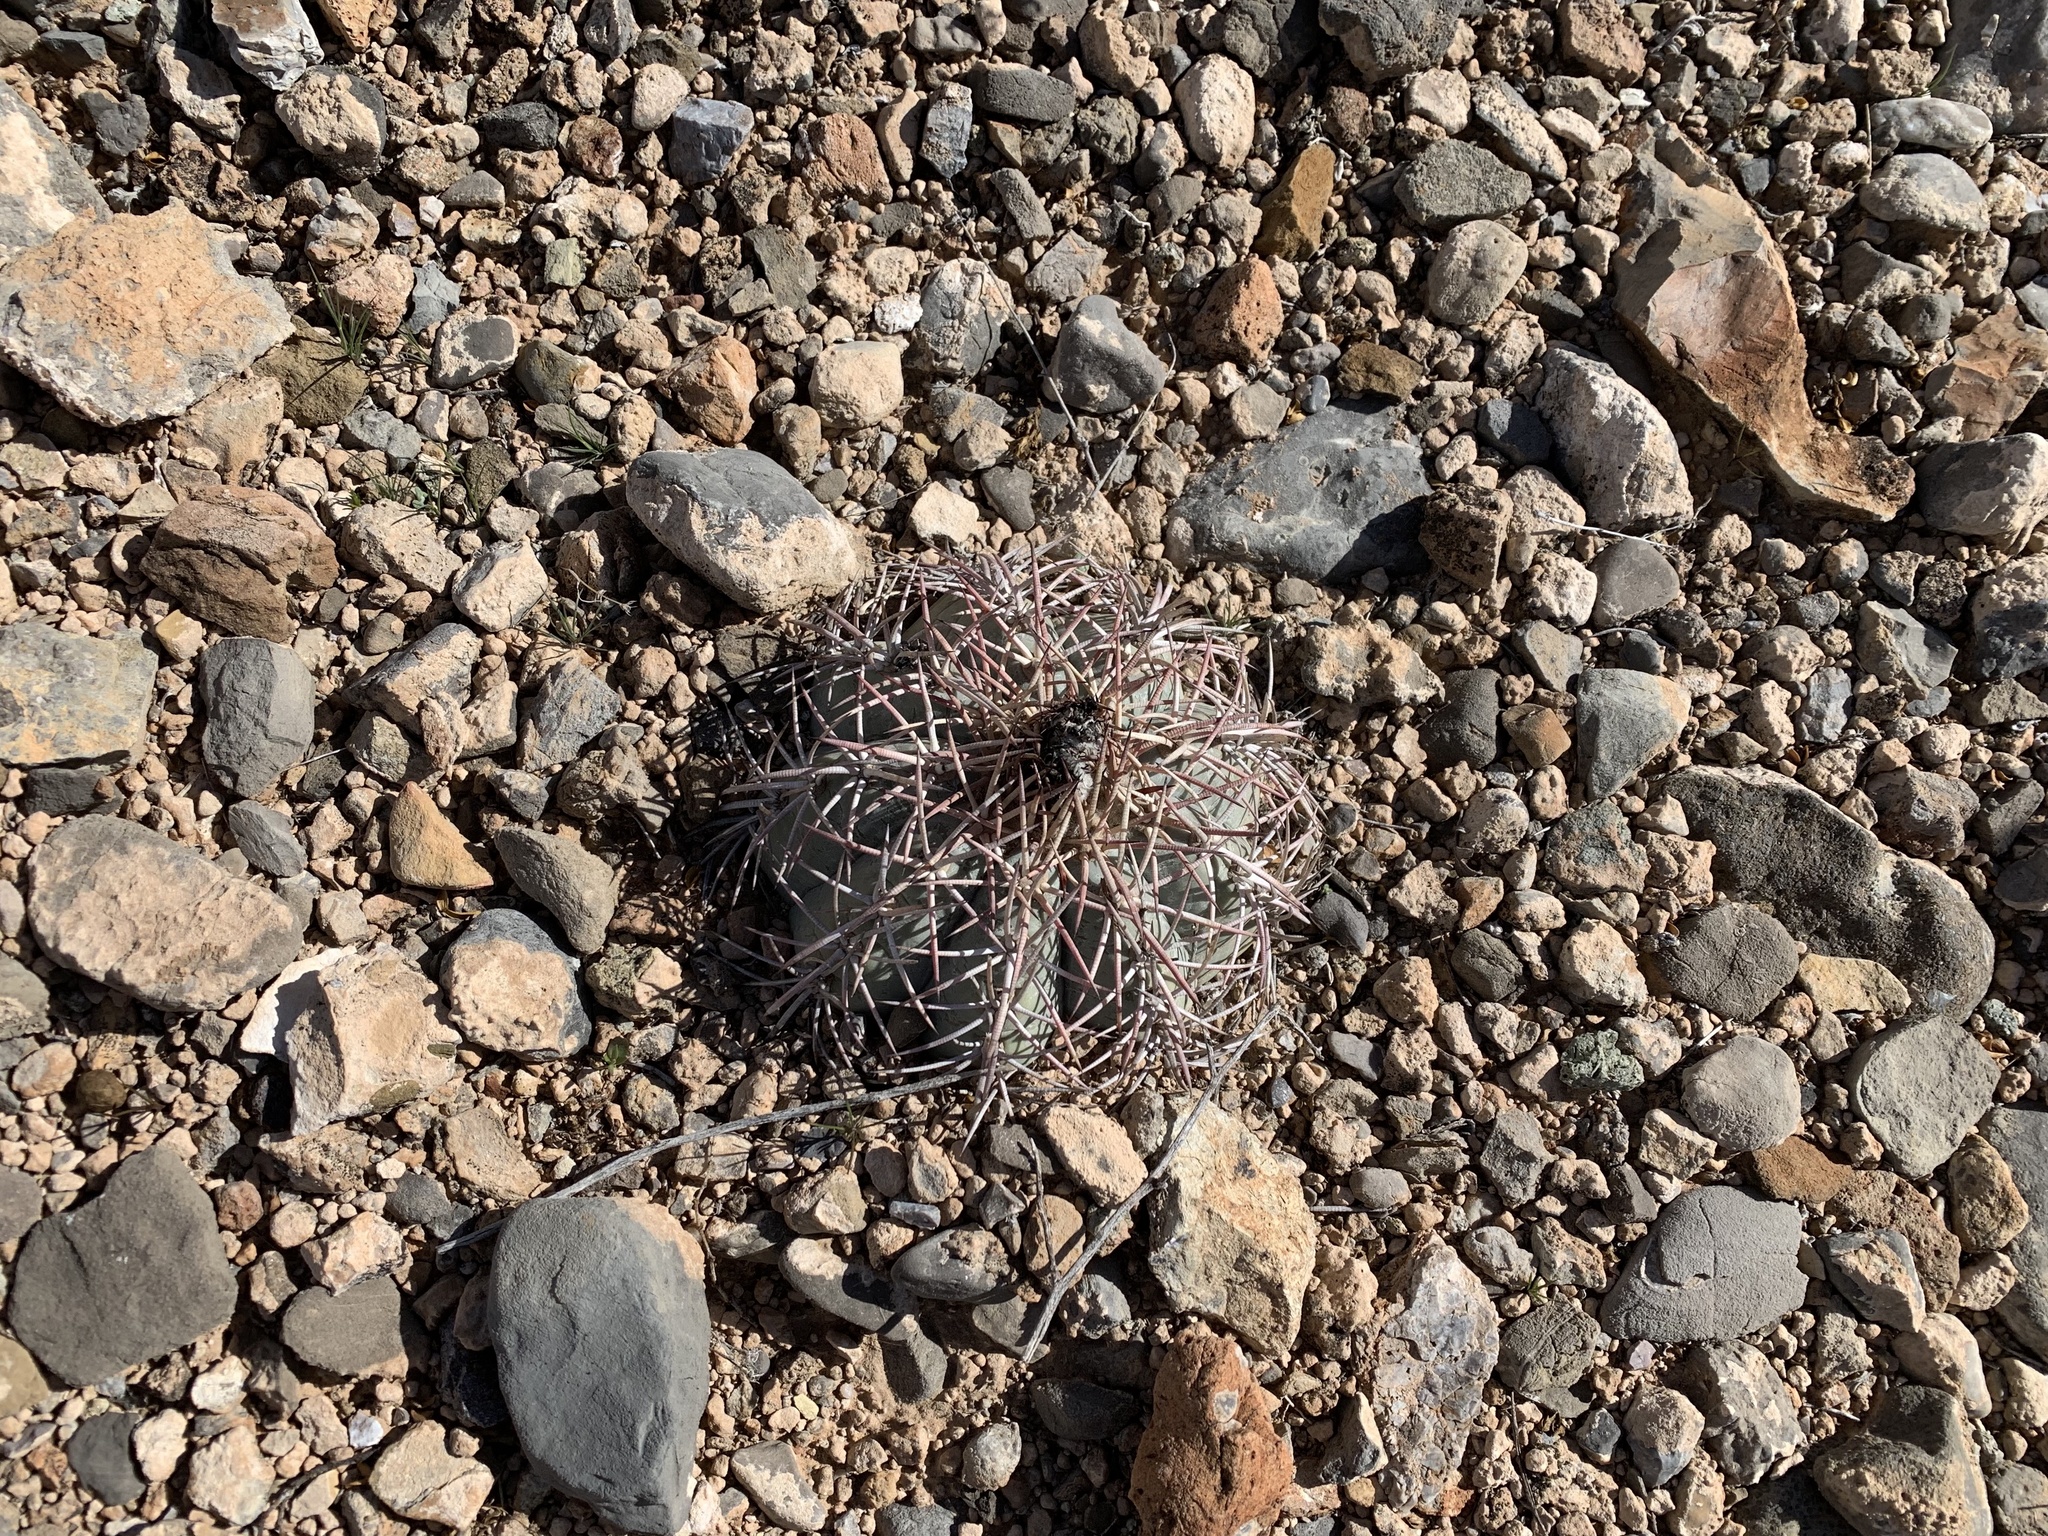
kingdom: Plantae
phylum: Tracheophyta
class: Magnoliopsida
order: Caryophyllales
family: Cactaceae
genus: Echinocactus
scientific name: Echinocactus horizonthalonius
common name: Devilshead
